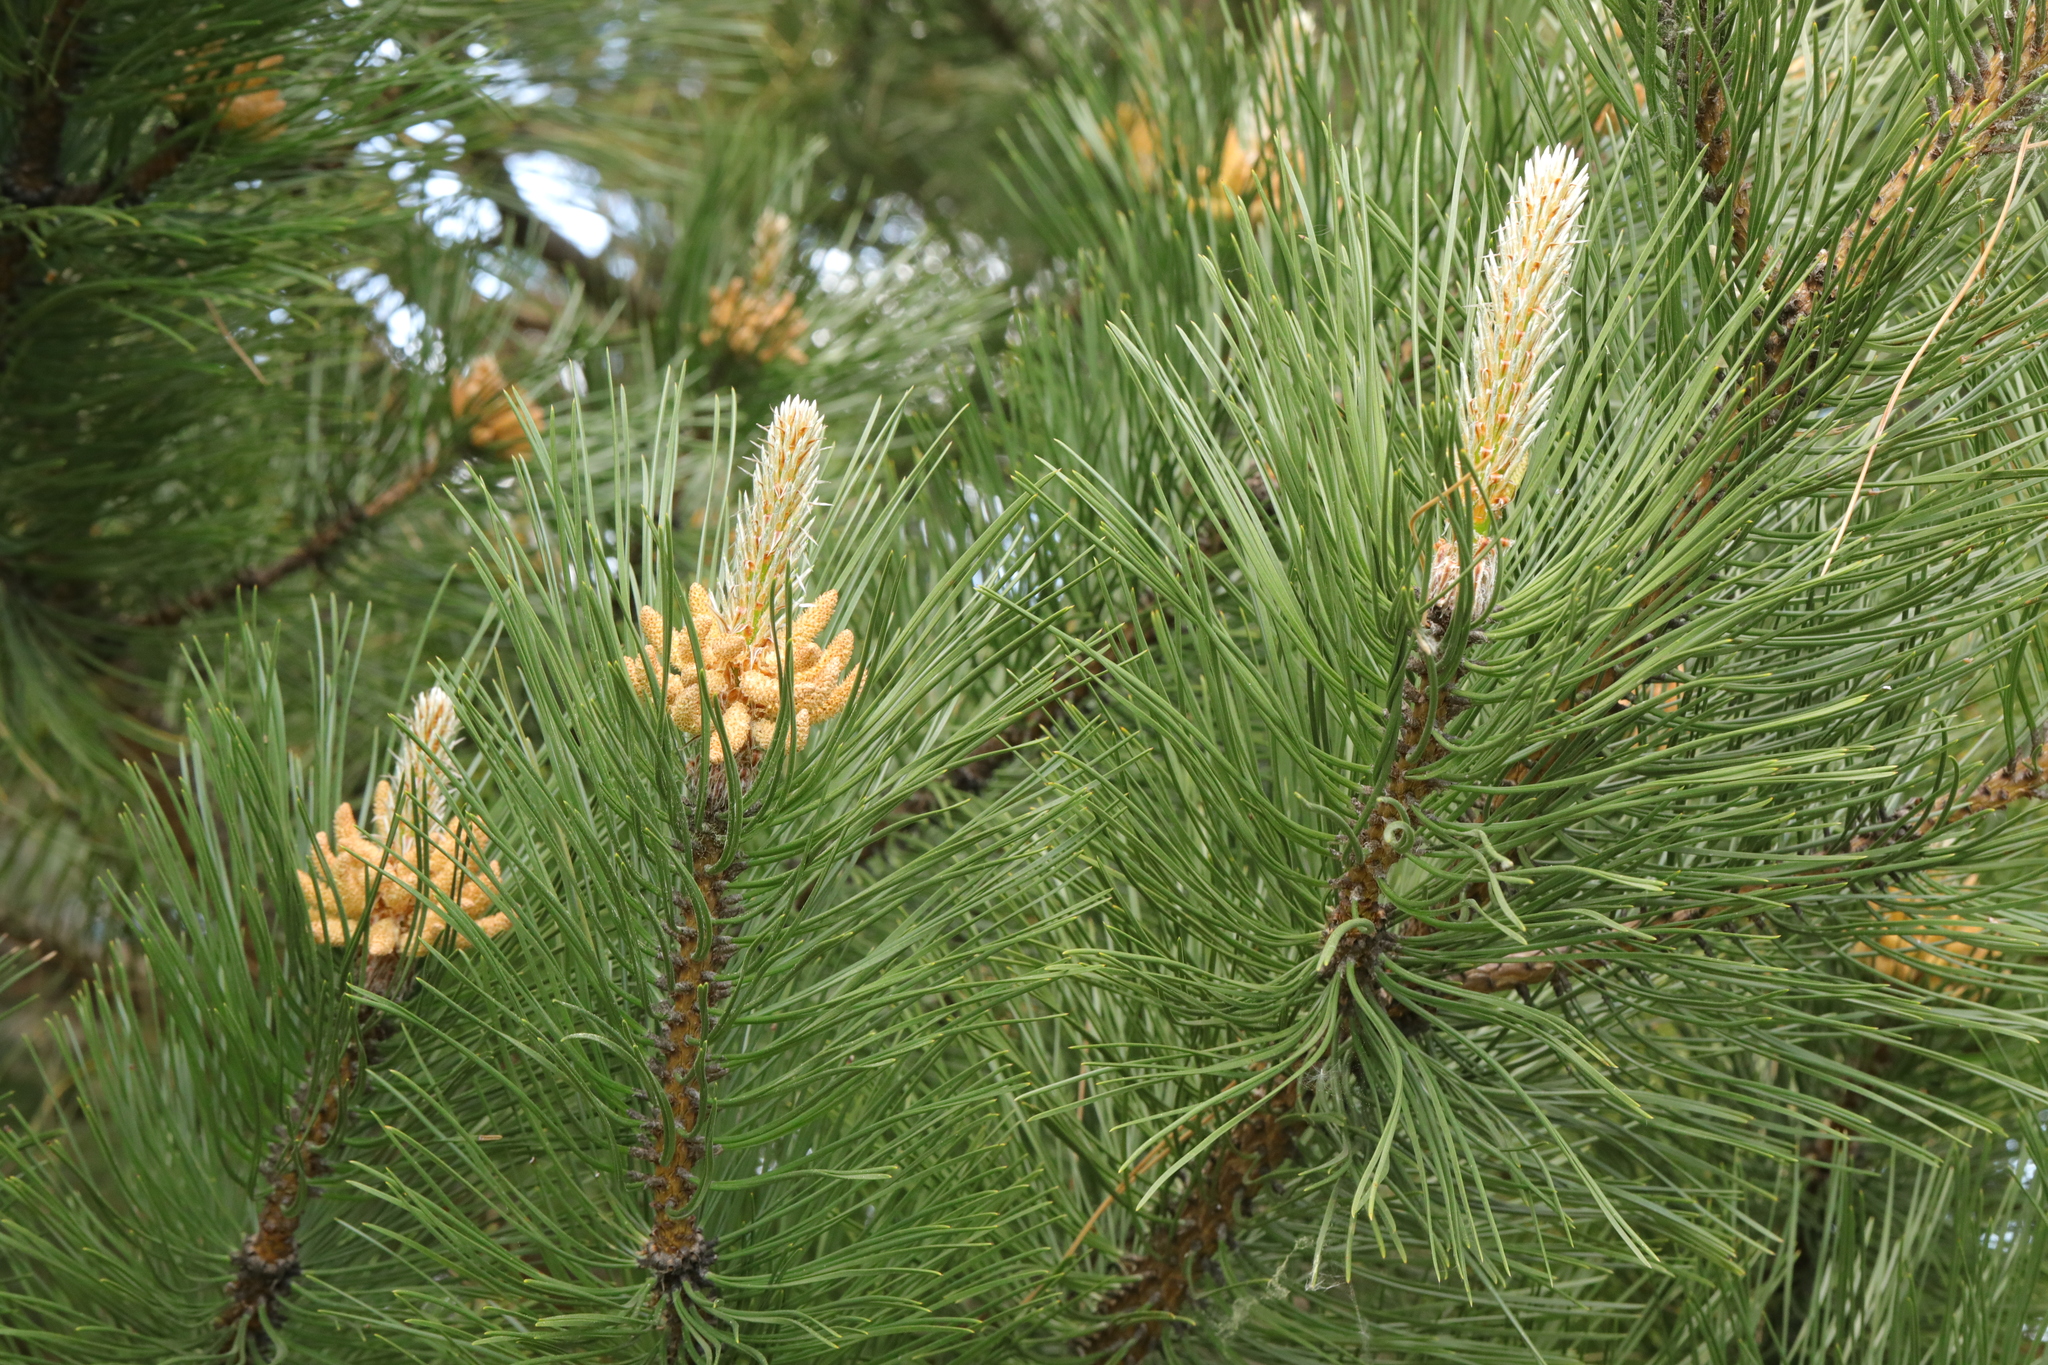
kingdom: Plantae
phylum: Tracheophyta
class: Pinopsida
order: Pinales
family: Pinaceae
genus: Pinus
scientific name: Pinus nigra
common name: Austrian pine
